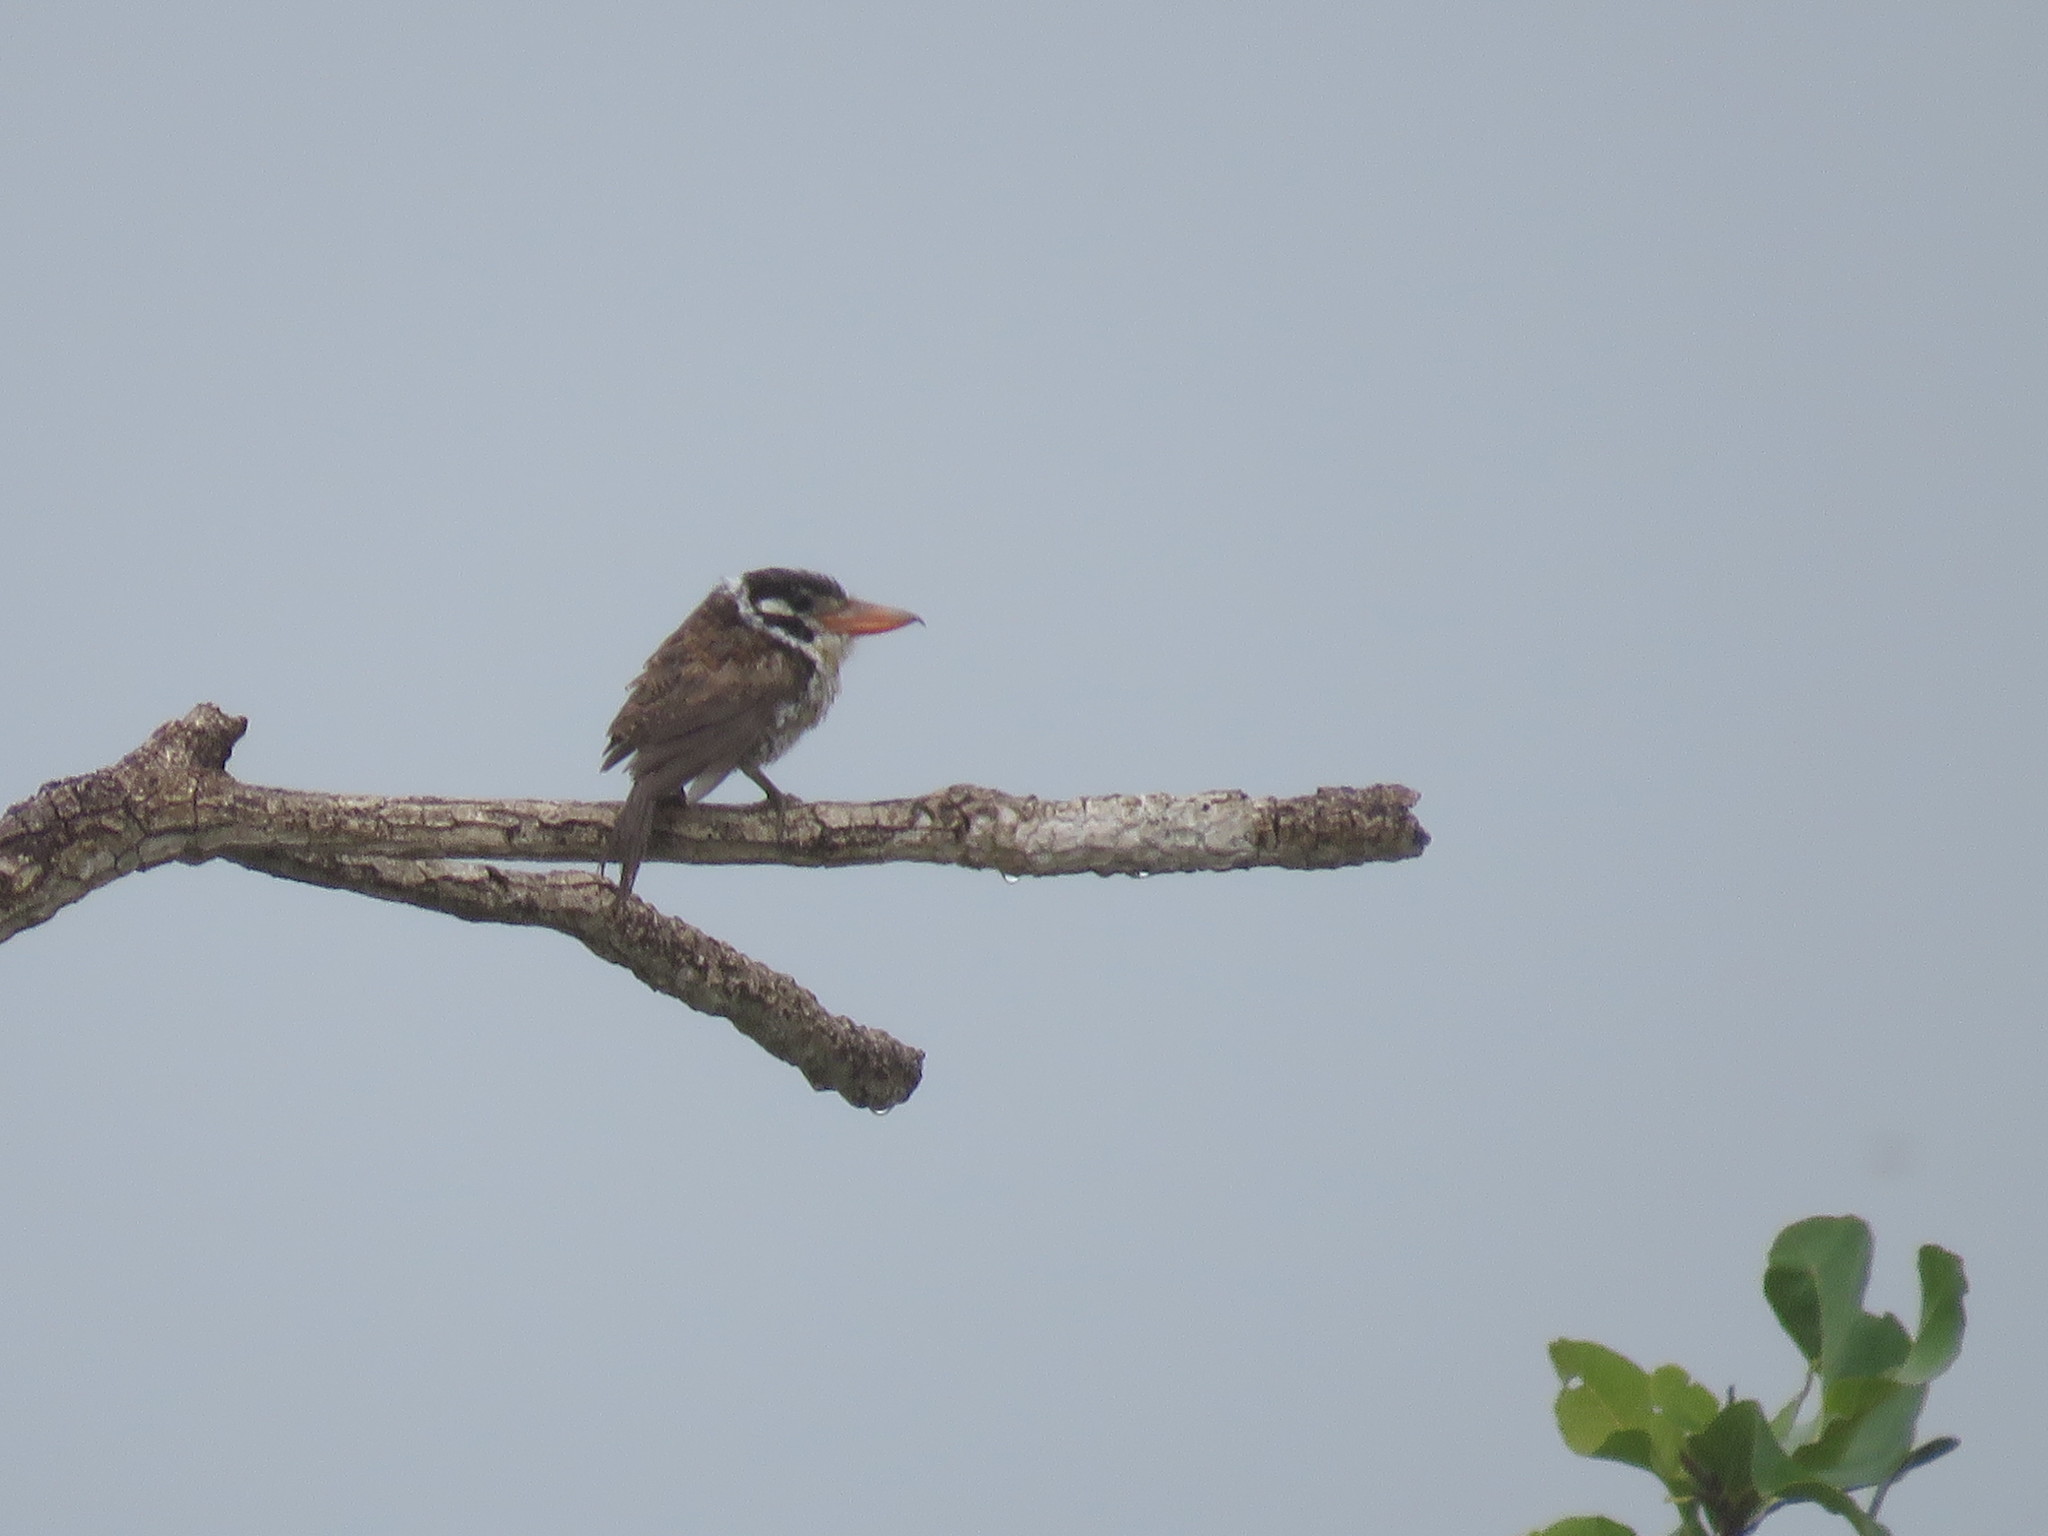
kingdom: Animalia
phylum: Chordata
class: Aves
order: Piciformes
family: Bucconidae
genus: Nystalus
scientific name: Nystalus chacuru
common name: White-eared puffbird
